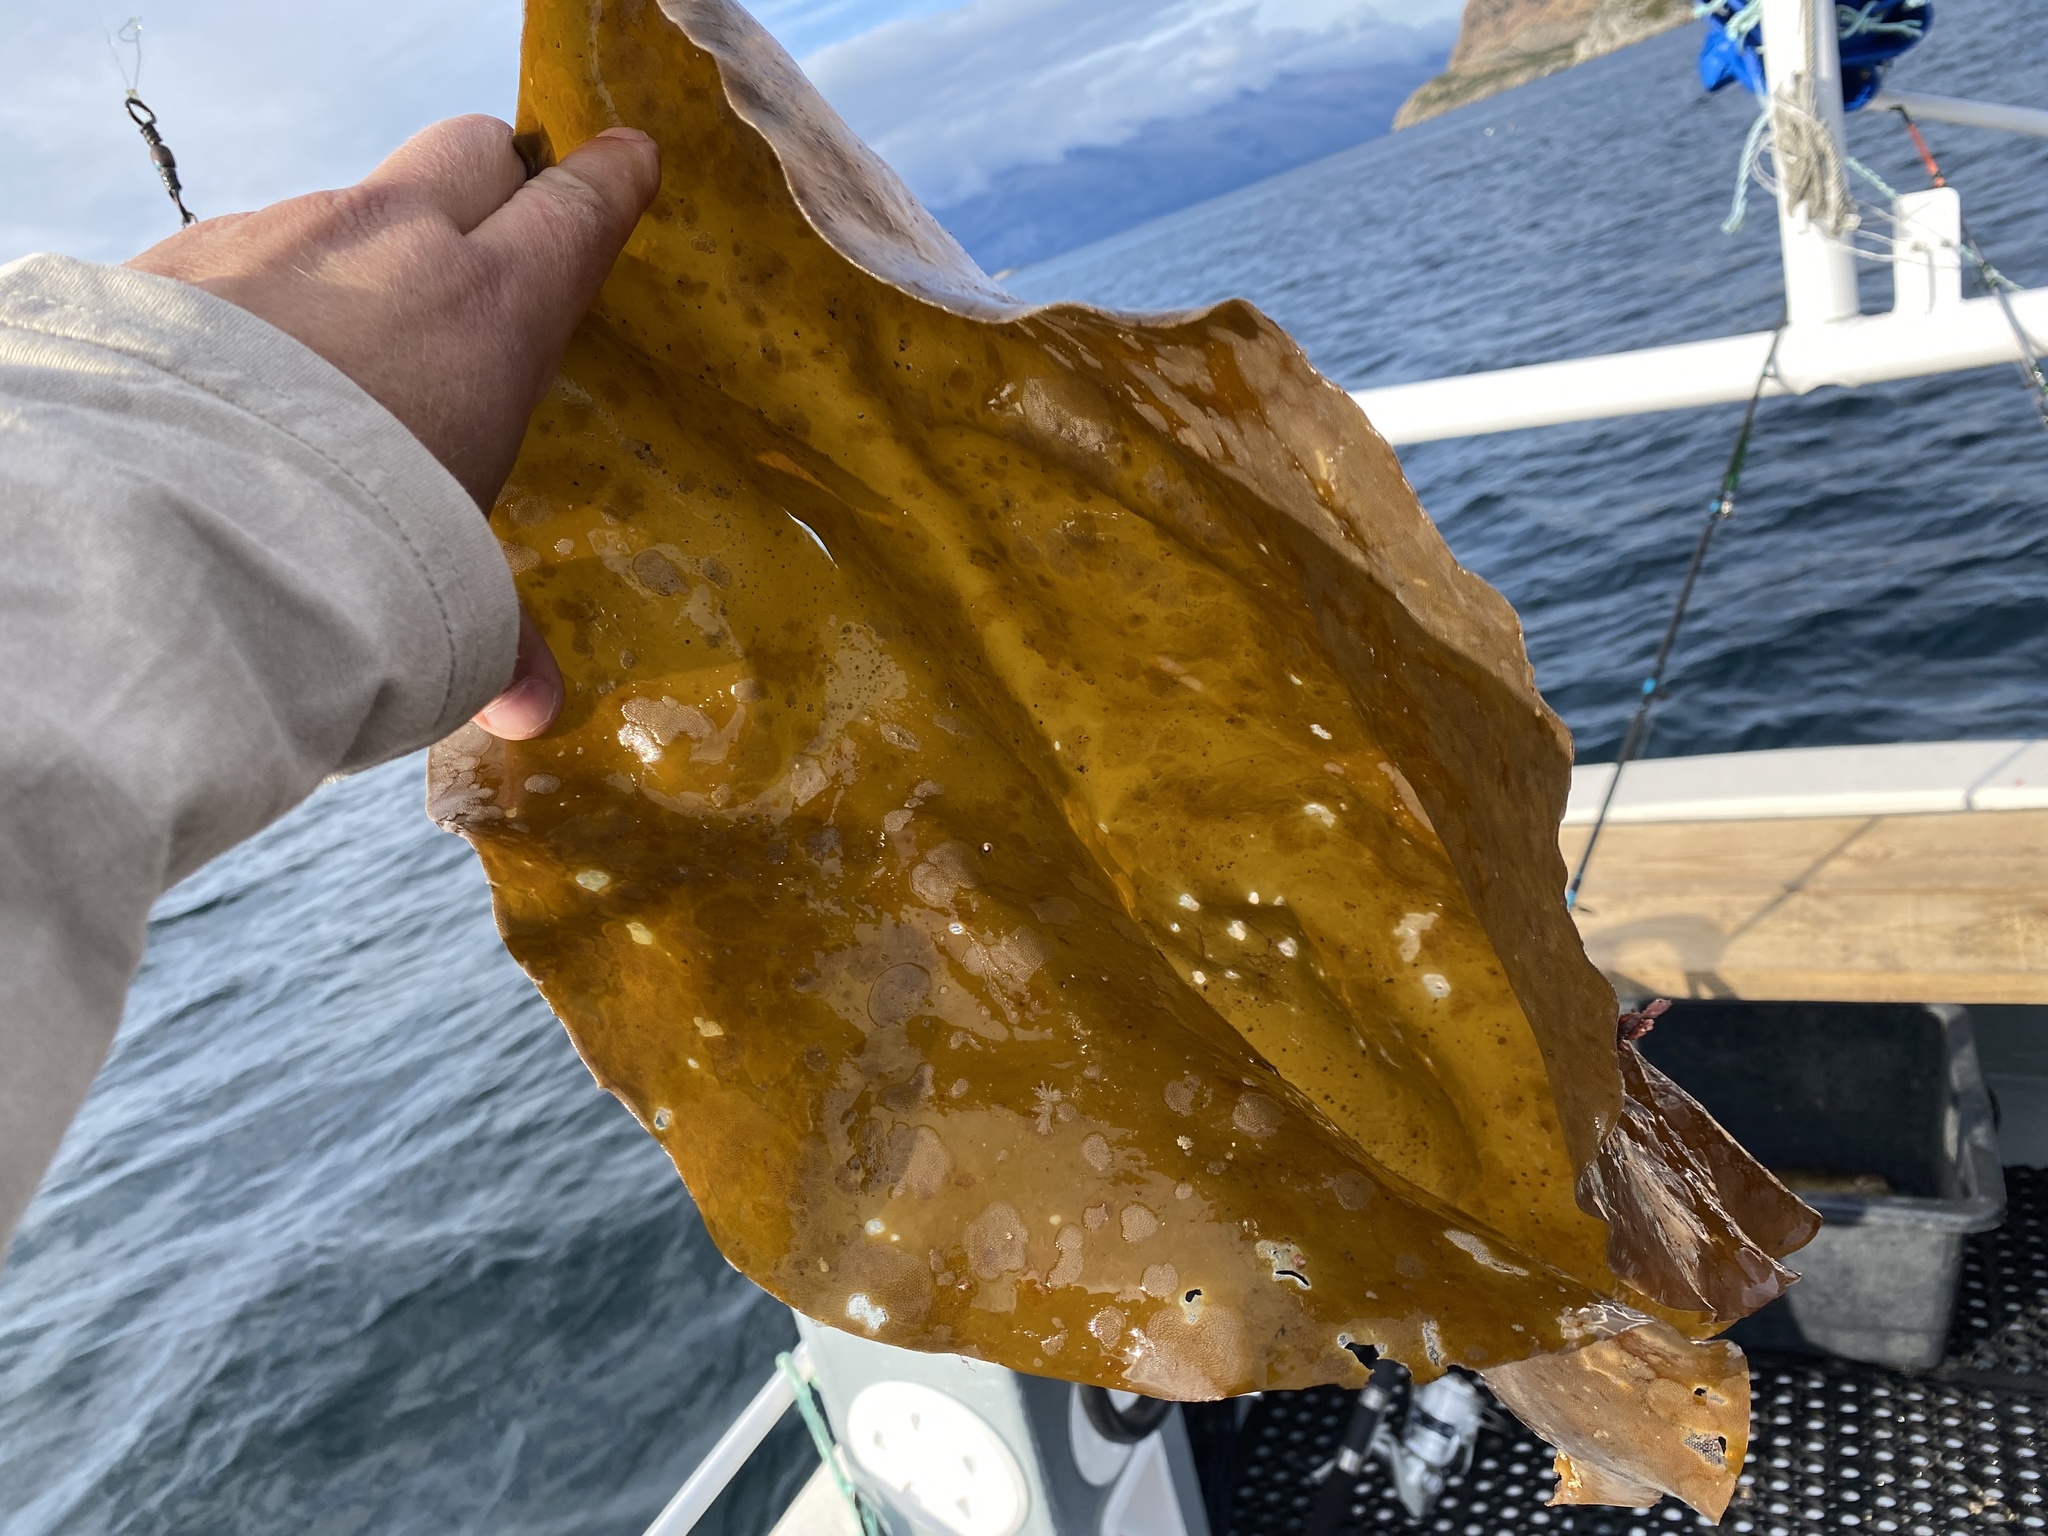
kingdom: Chromista
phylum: Ochrophyta
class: Phaeophyceae
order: Laminariales
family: Laminariaceae
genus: Laminaria
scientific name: Laminaria hyperborea
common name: Cuvie
